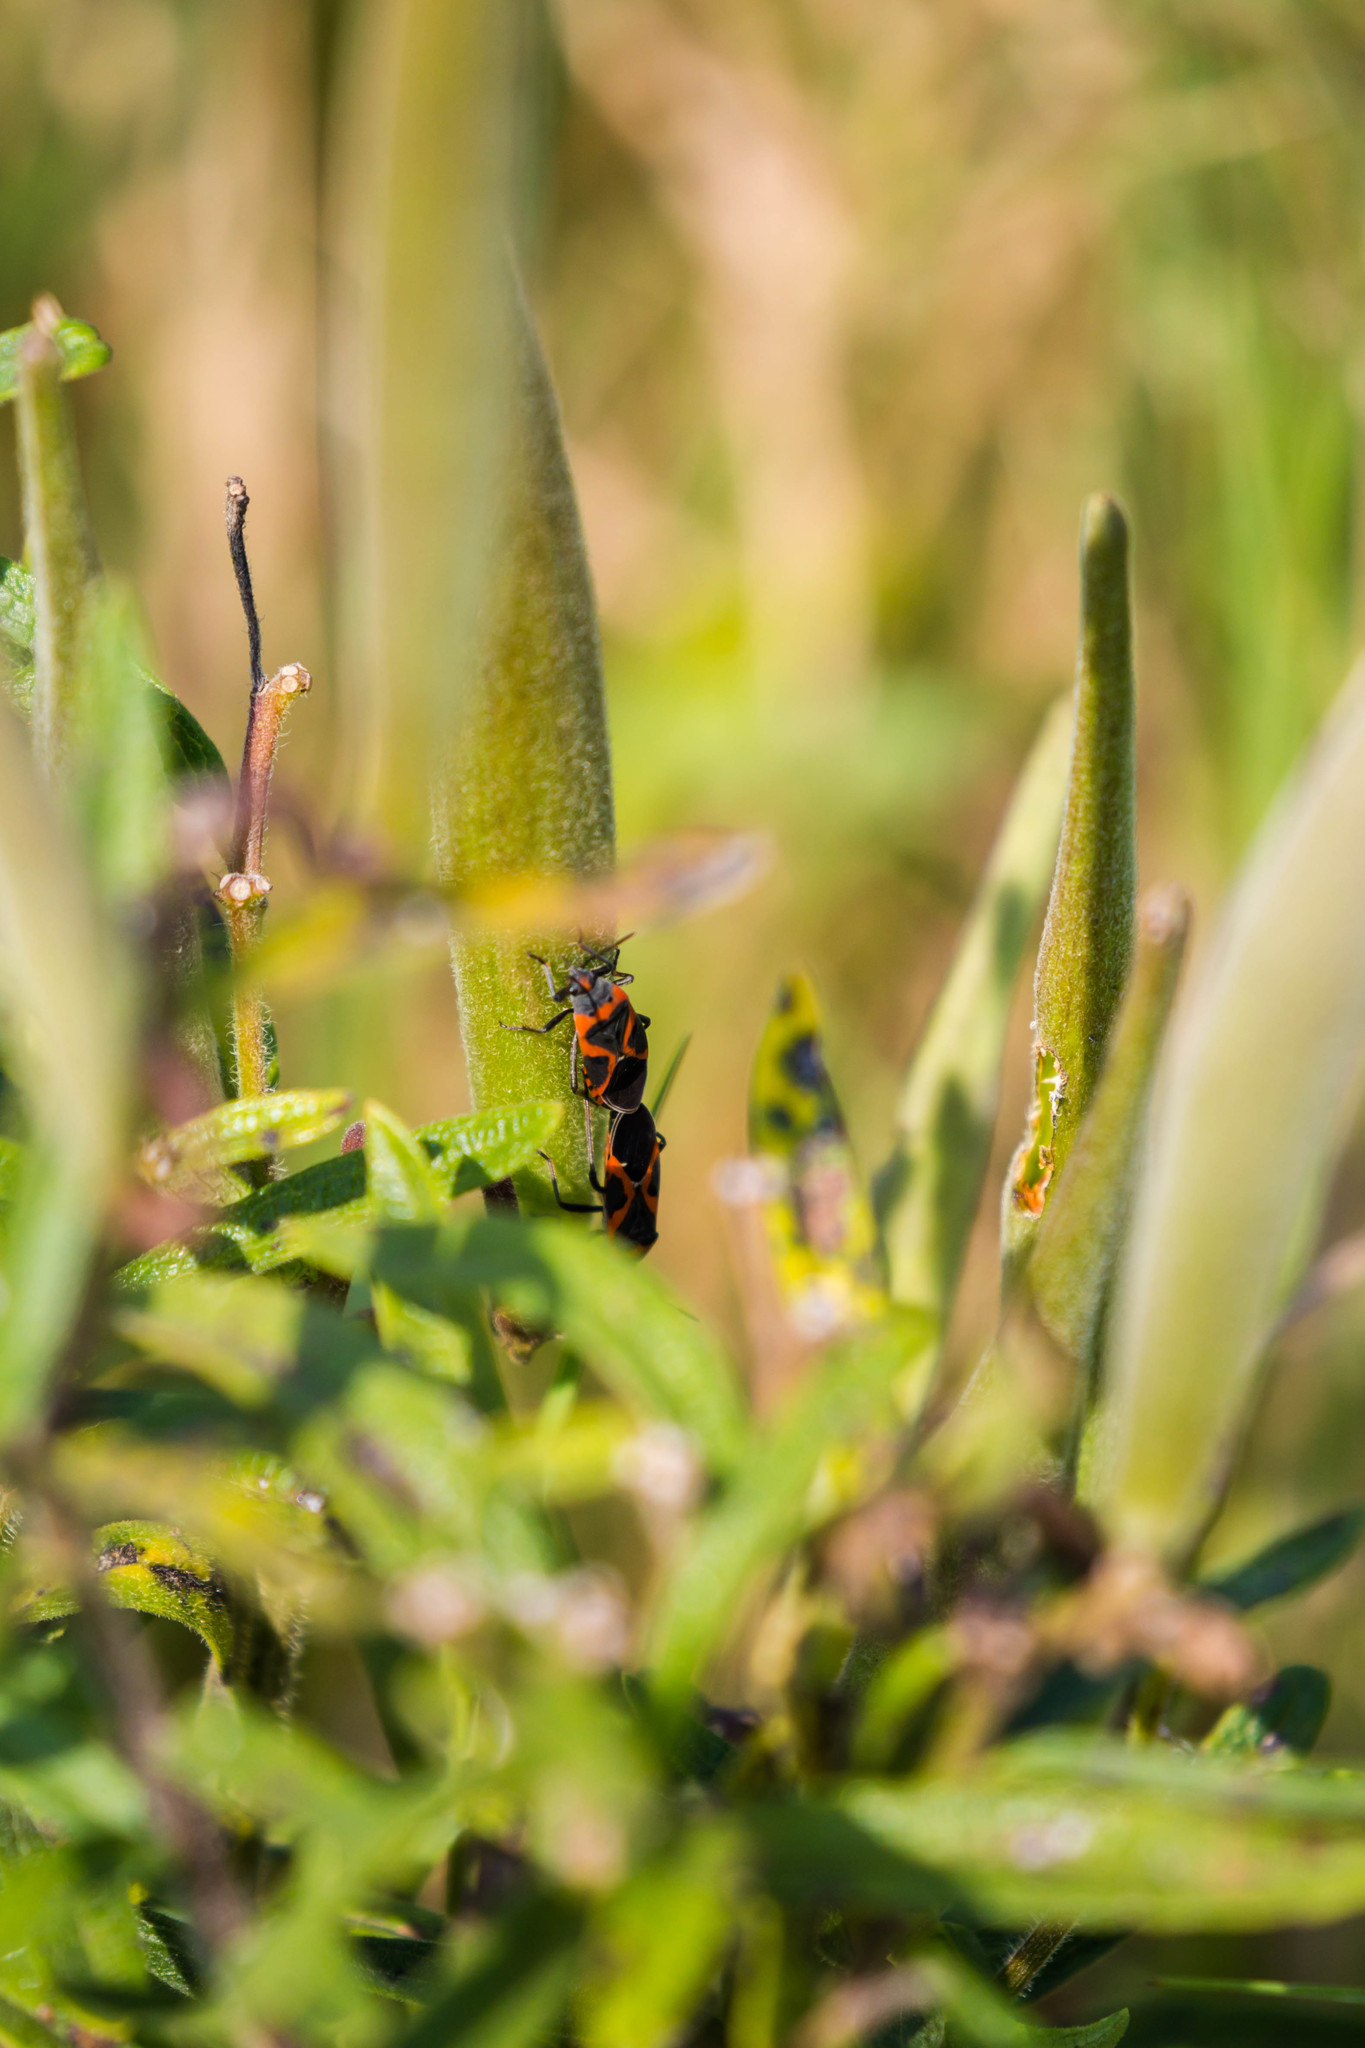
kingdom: Animalia
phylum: Arthropoda
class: Insecta
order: Hemiptera
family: Lygaeidae
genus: Lygaeus
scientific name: Lygaeus kalmii
